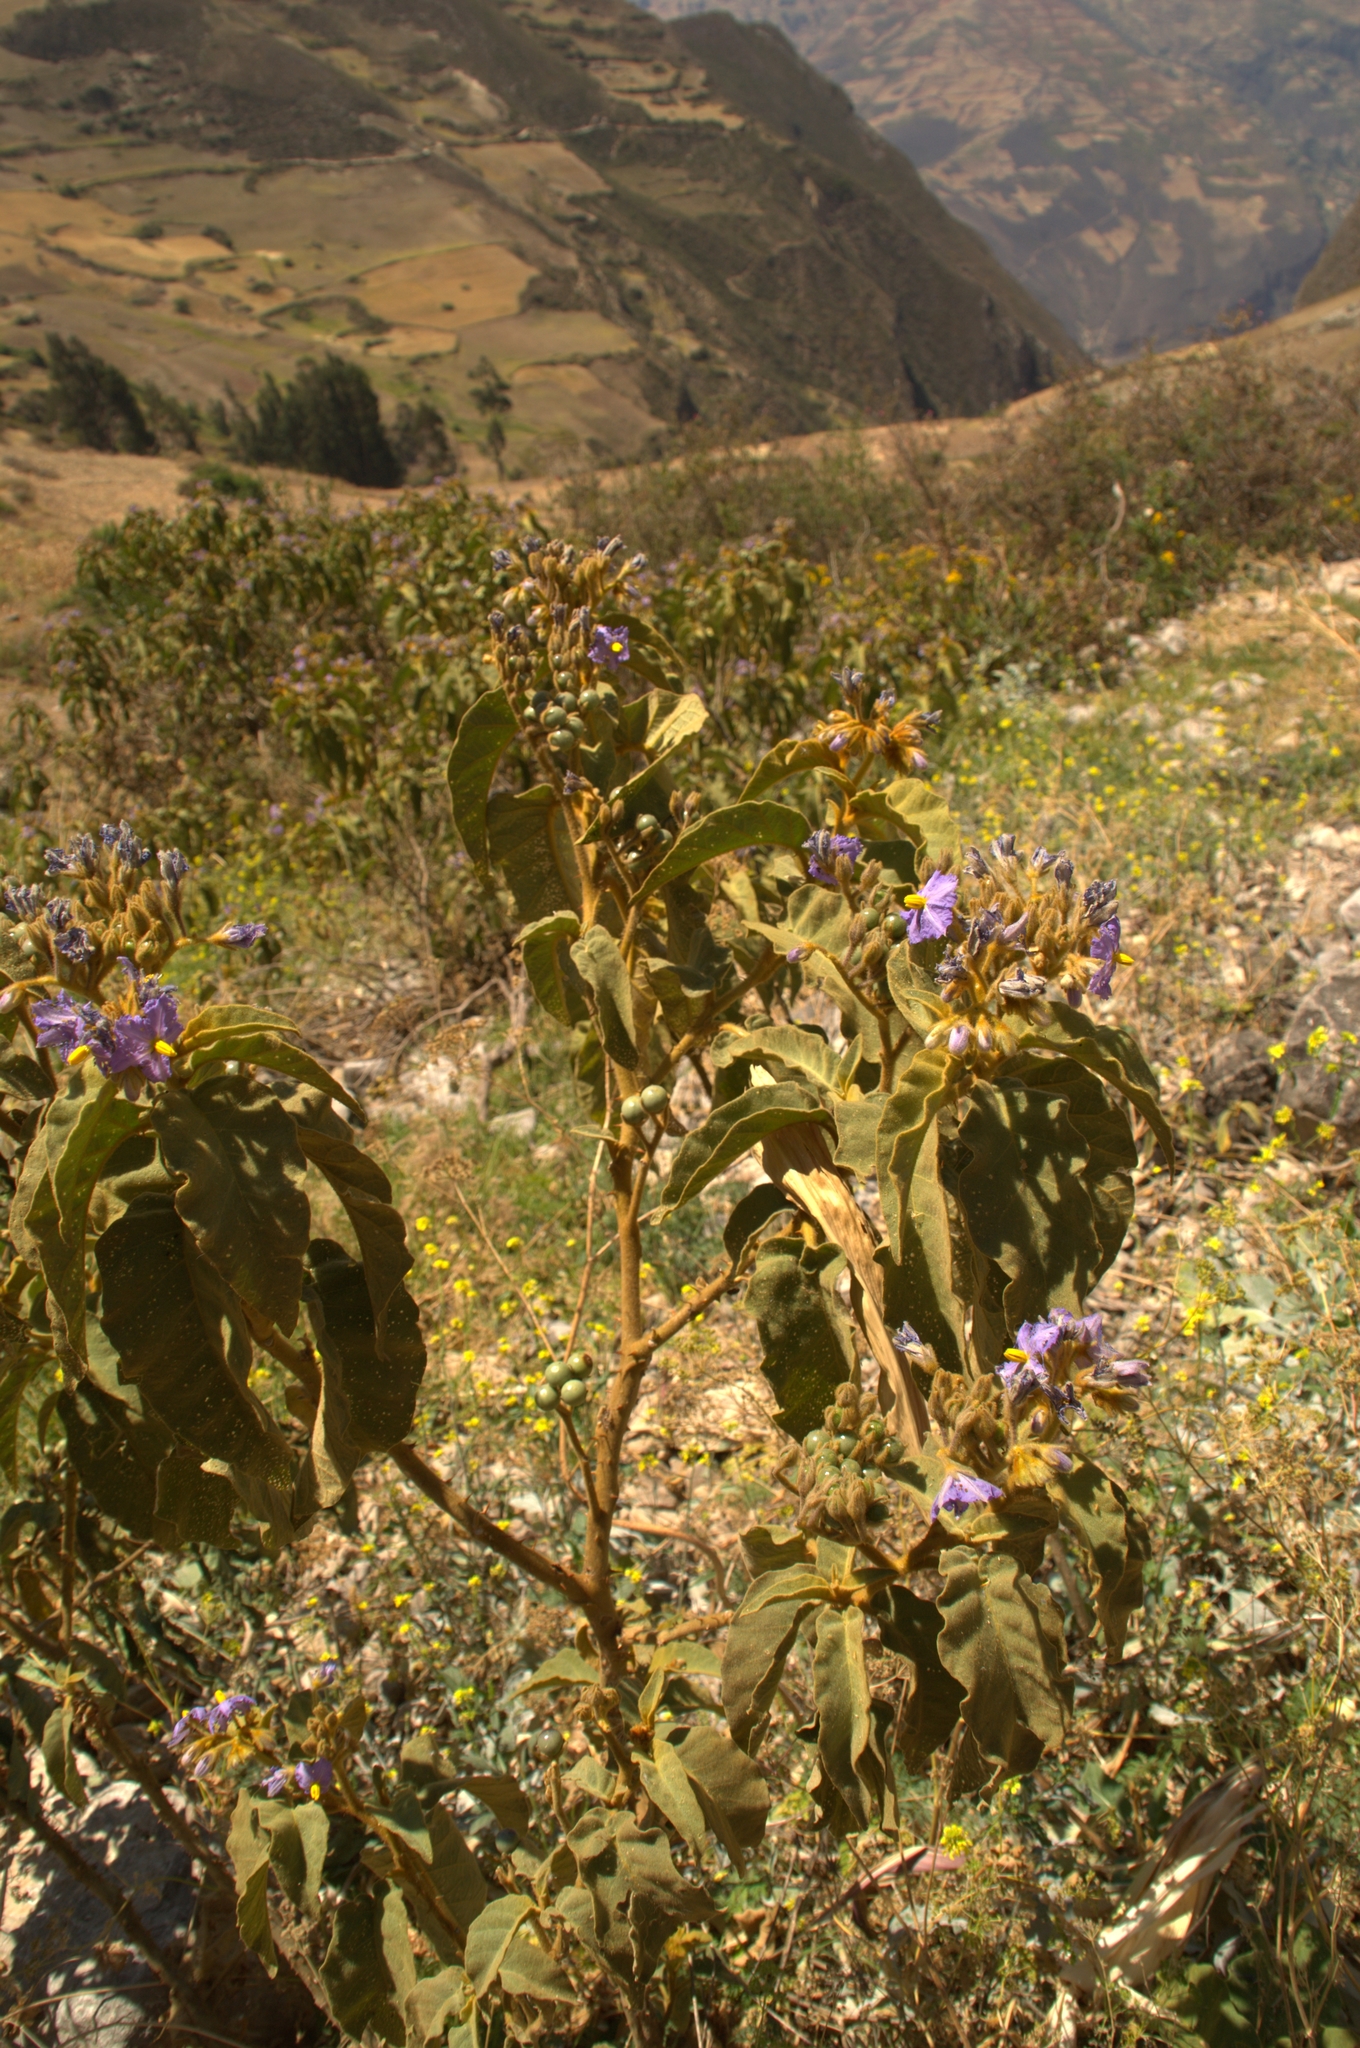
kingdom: Plantae
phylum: Tracheophyta
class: Magnoliopsida
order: Solanales
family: Solanaceae
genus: Solanum
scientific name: Solanum glutinosum
